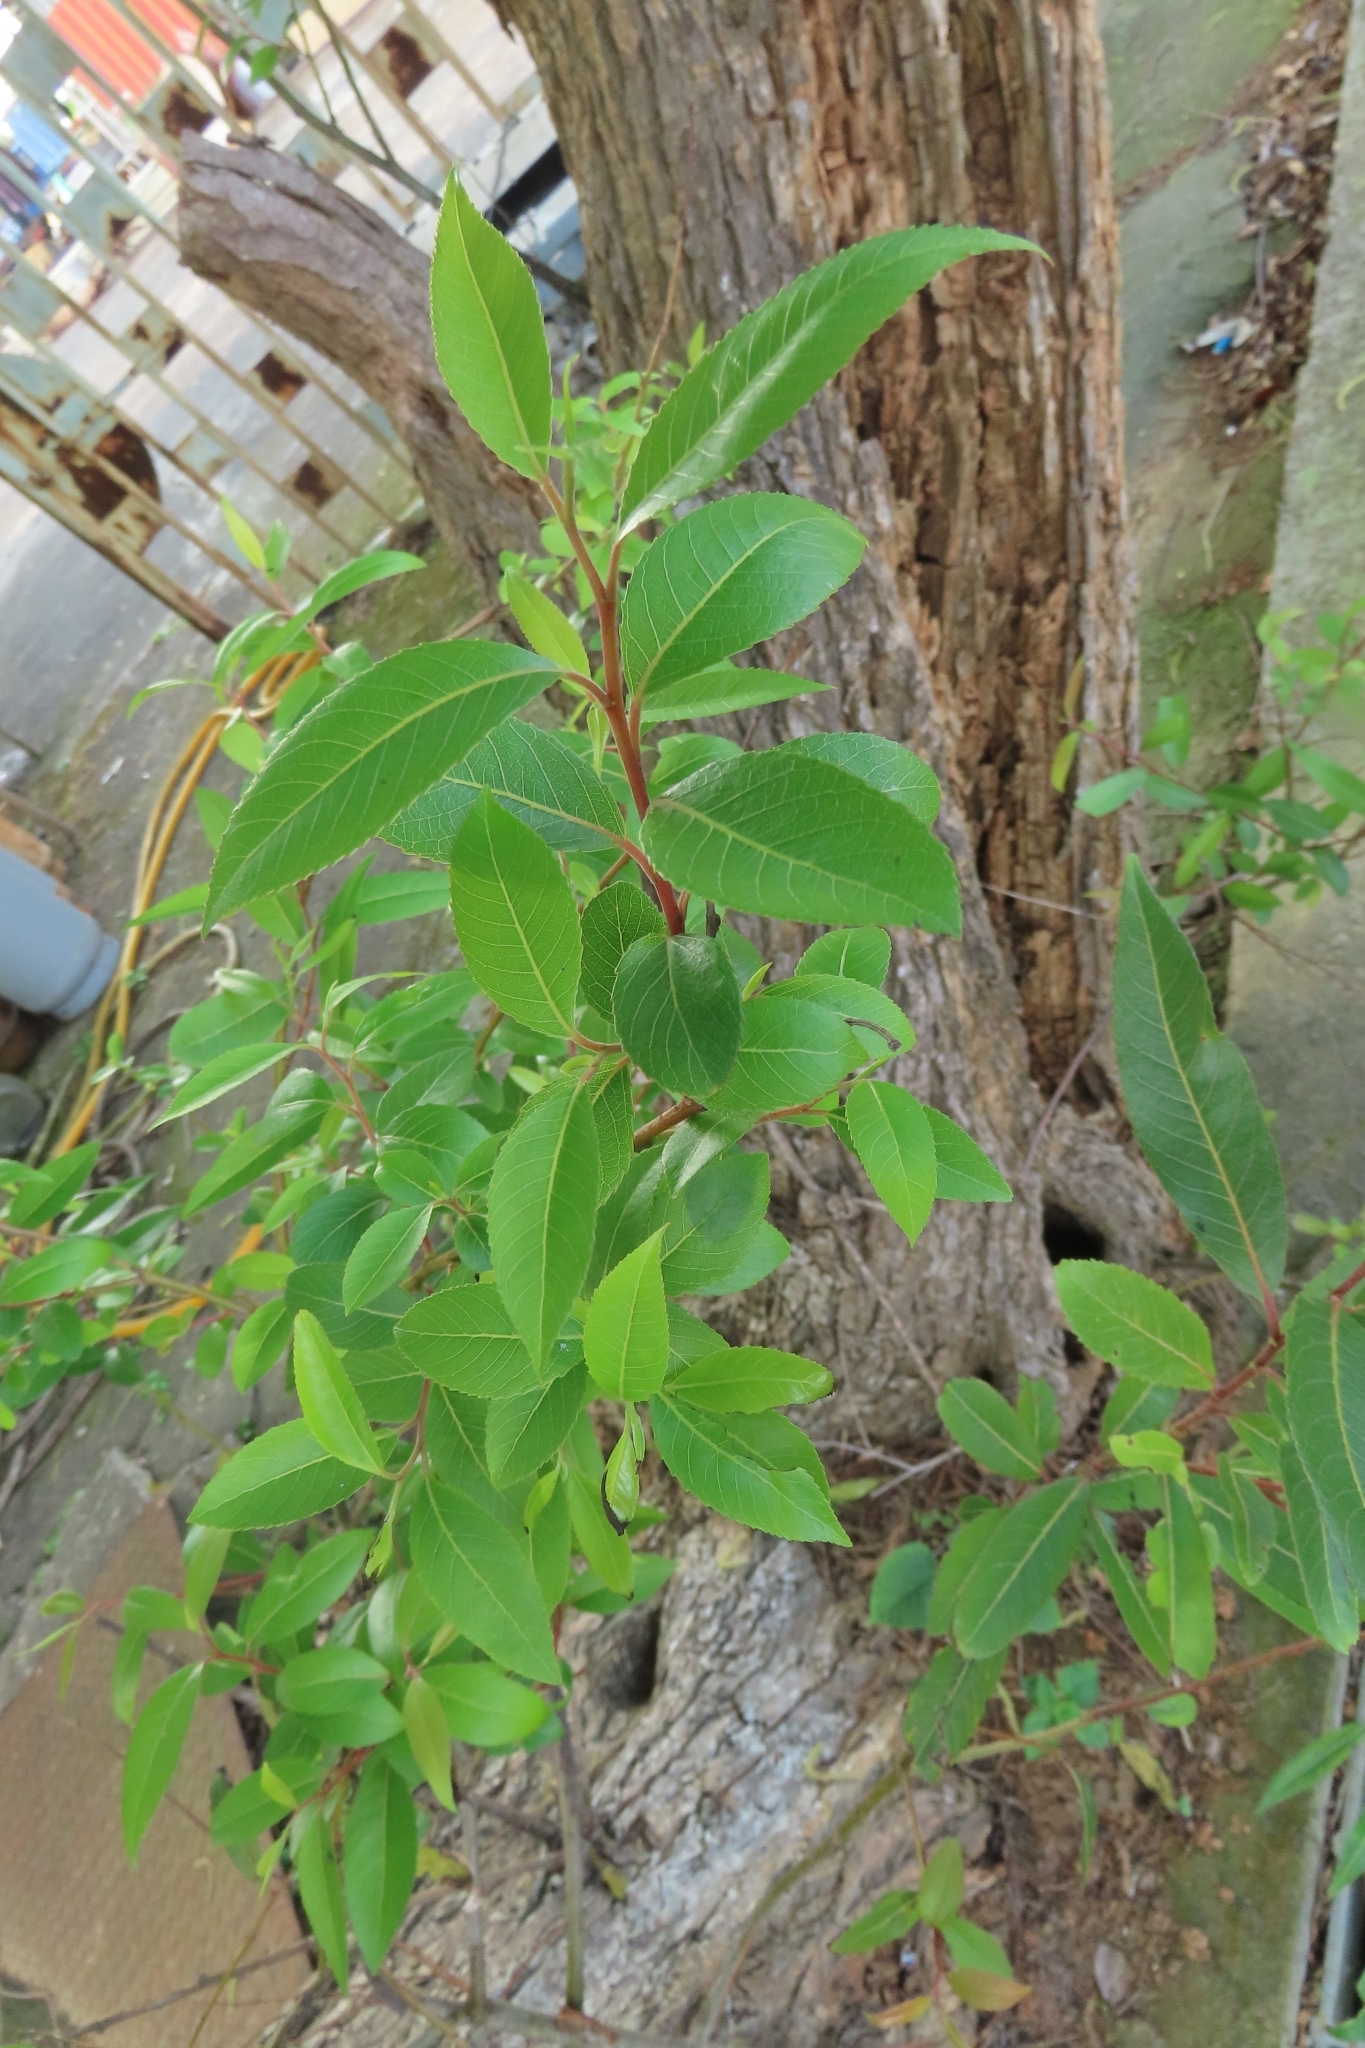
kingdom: Plantae
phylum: Tracheophyta
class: Magnoliopsida
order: Malpighiales
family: Salicaceae
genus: Salix
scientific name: Salix mesnyi
